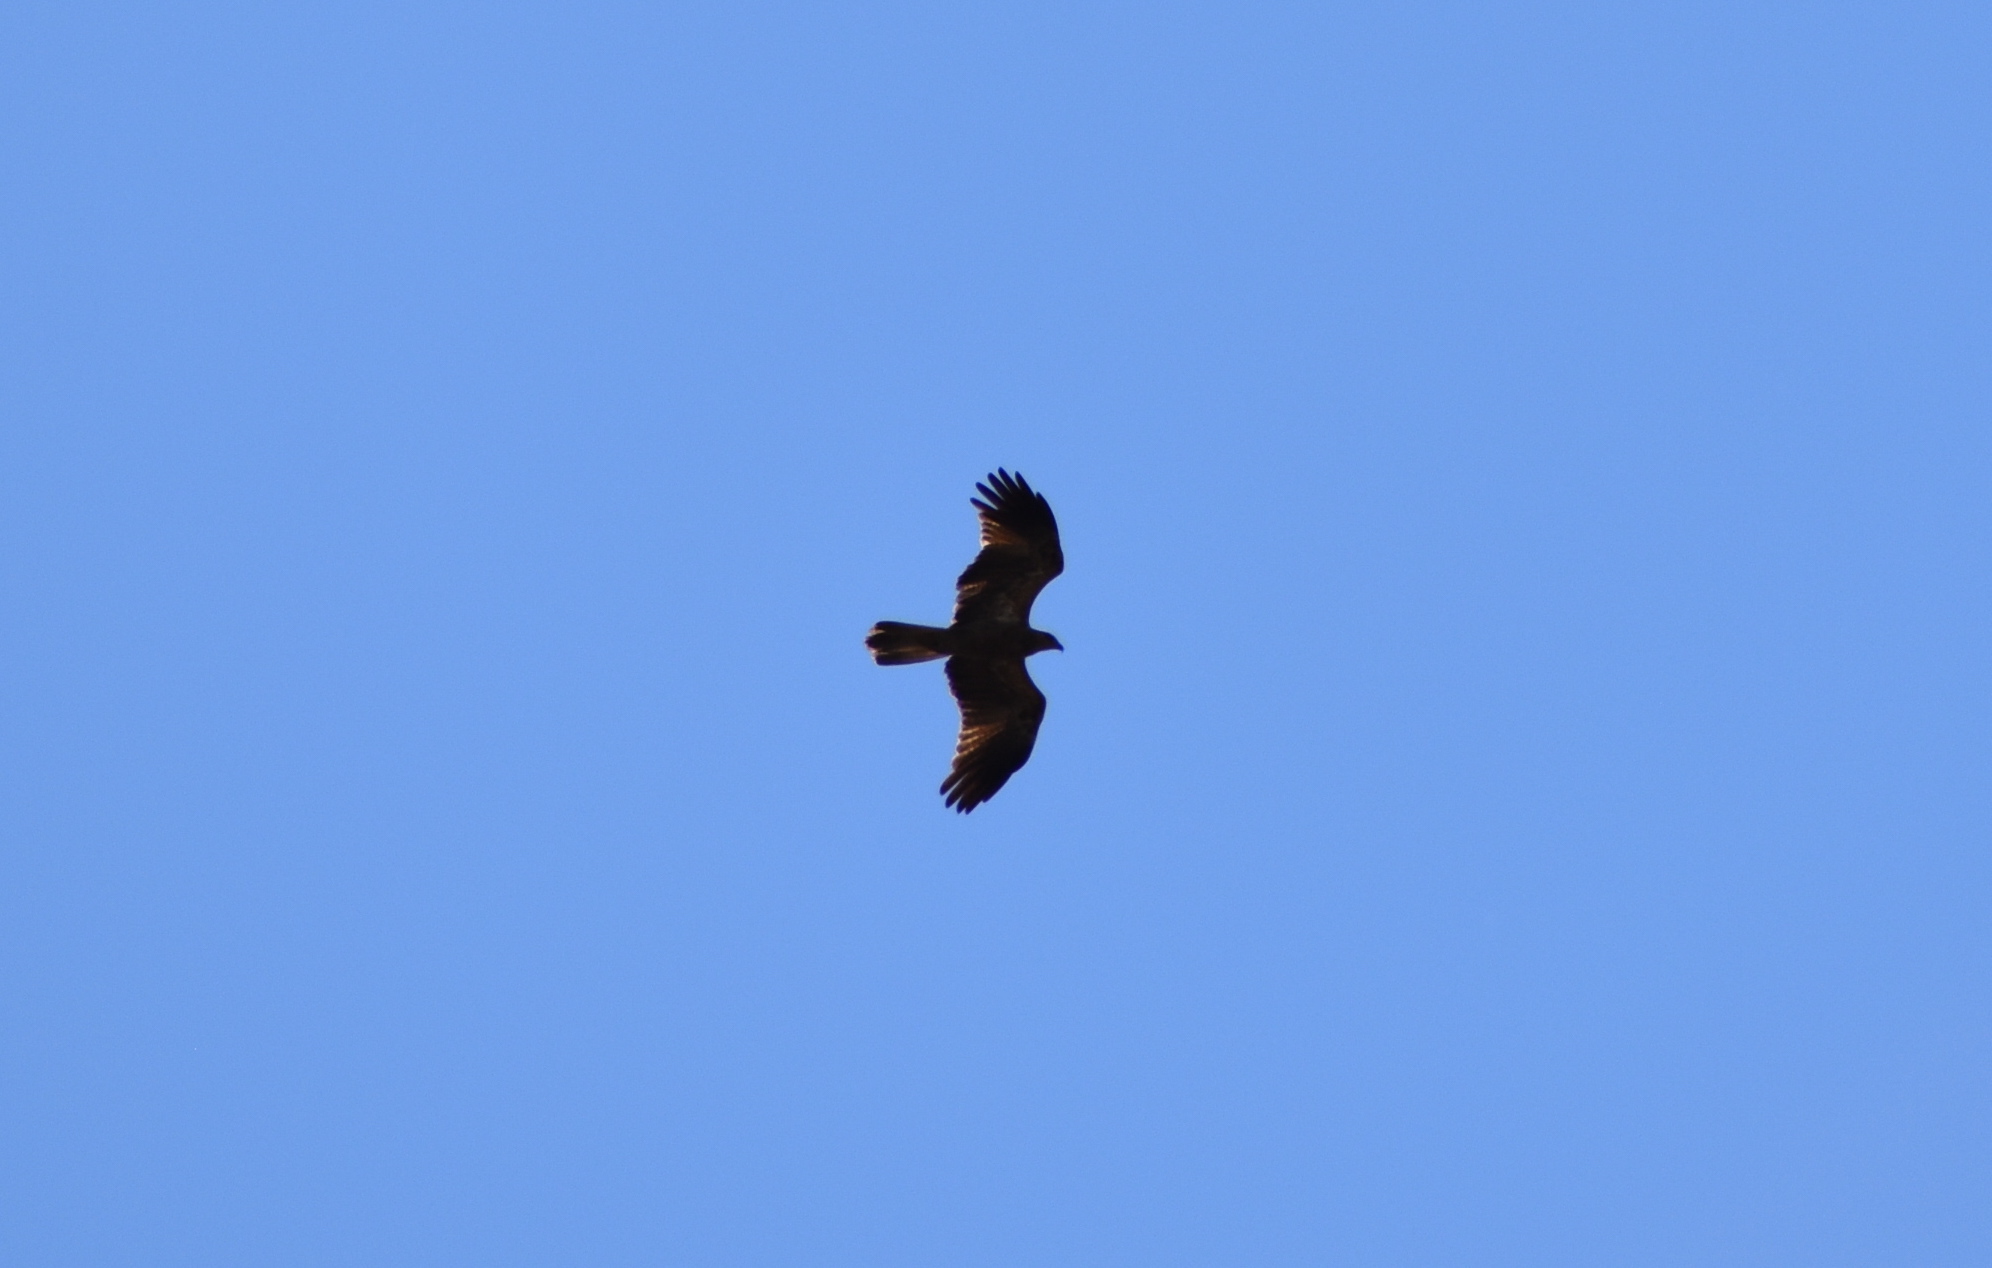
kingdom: Animalia
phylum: Chordata
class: Aves
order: Accipitriformes
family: Accipitridae
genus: Haliastur
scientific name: Haliastur sphenurus
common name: Whistling kite
